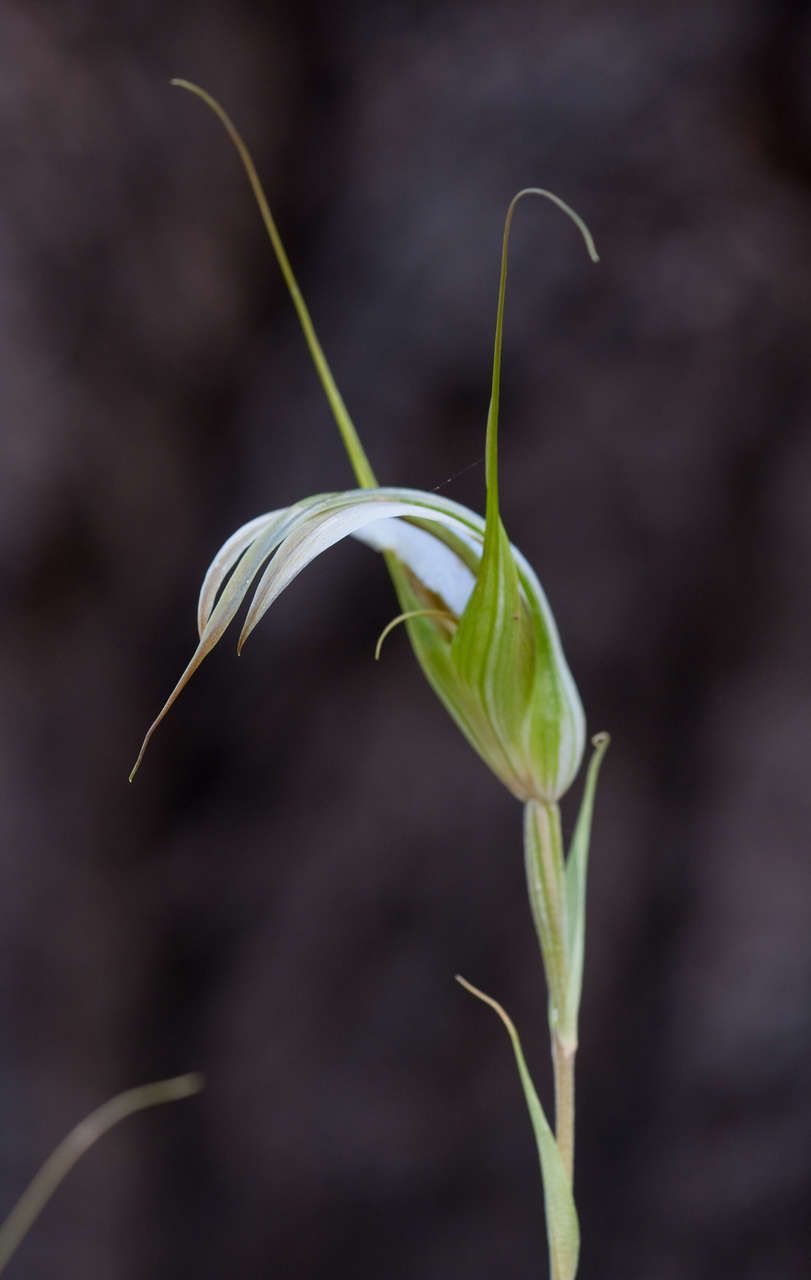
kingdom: Plantae
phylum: Tracheophyta
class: Liliopsida
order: Asparagales
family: Orchidaceae
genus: Pterostylis
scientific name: Pterostylis ampliata
